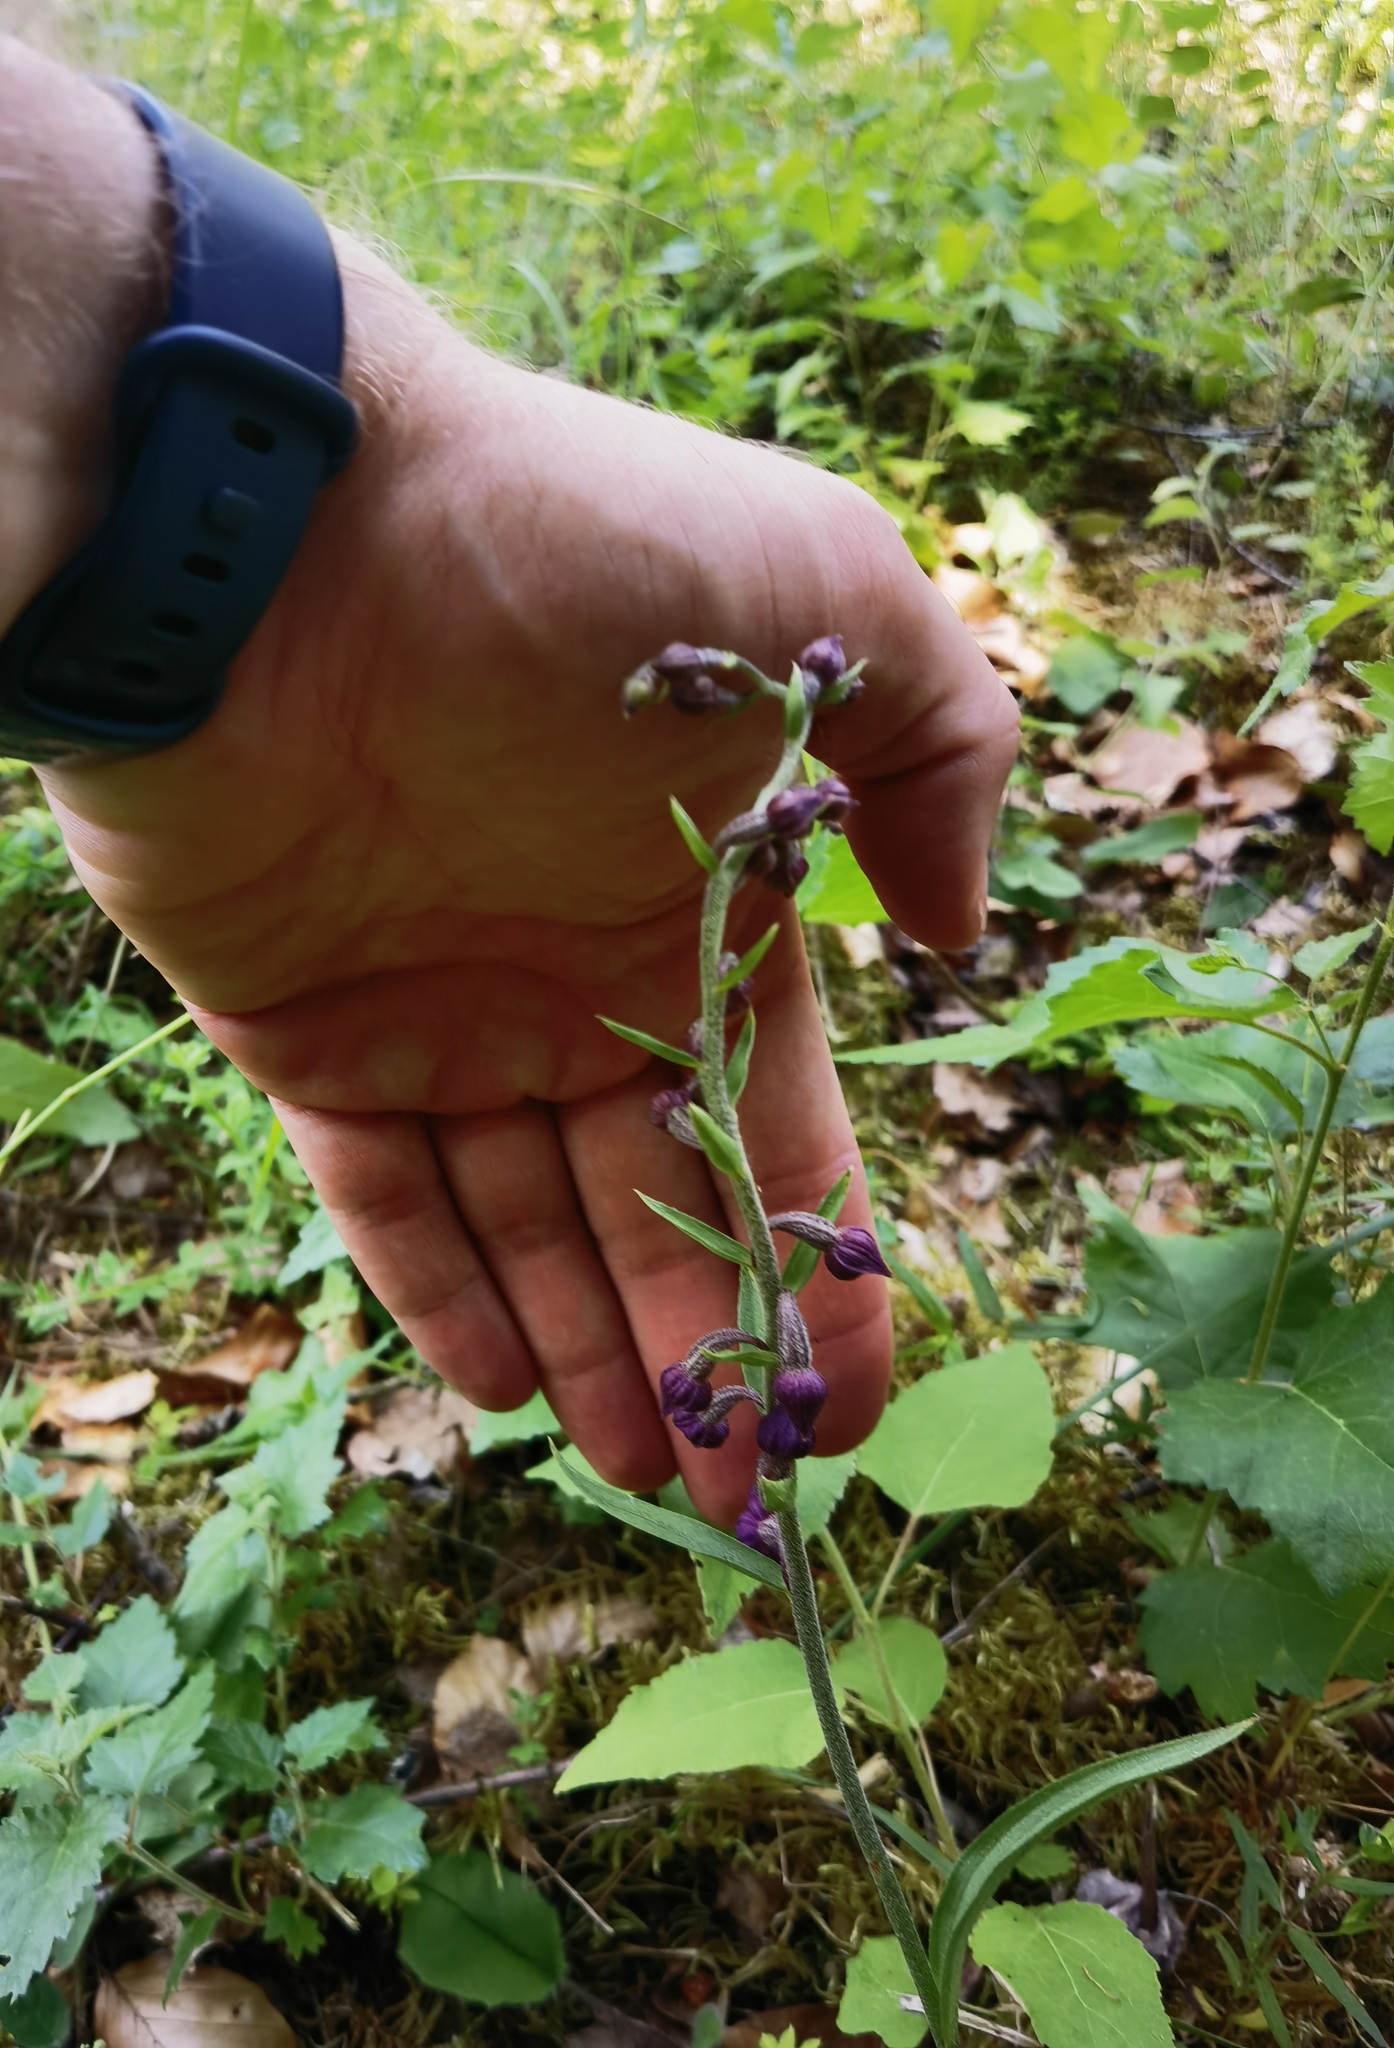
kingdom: Plantae
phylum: Tracheophyta
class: Liliopsida
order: Asparagales
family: Orchidaceae
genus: Epipactis
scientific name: Epipactis atrorubens
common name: Dark-red helleborine
